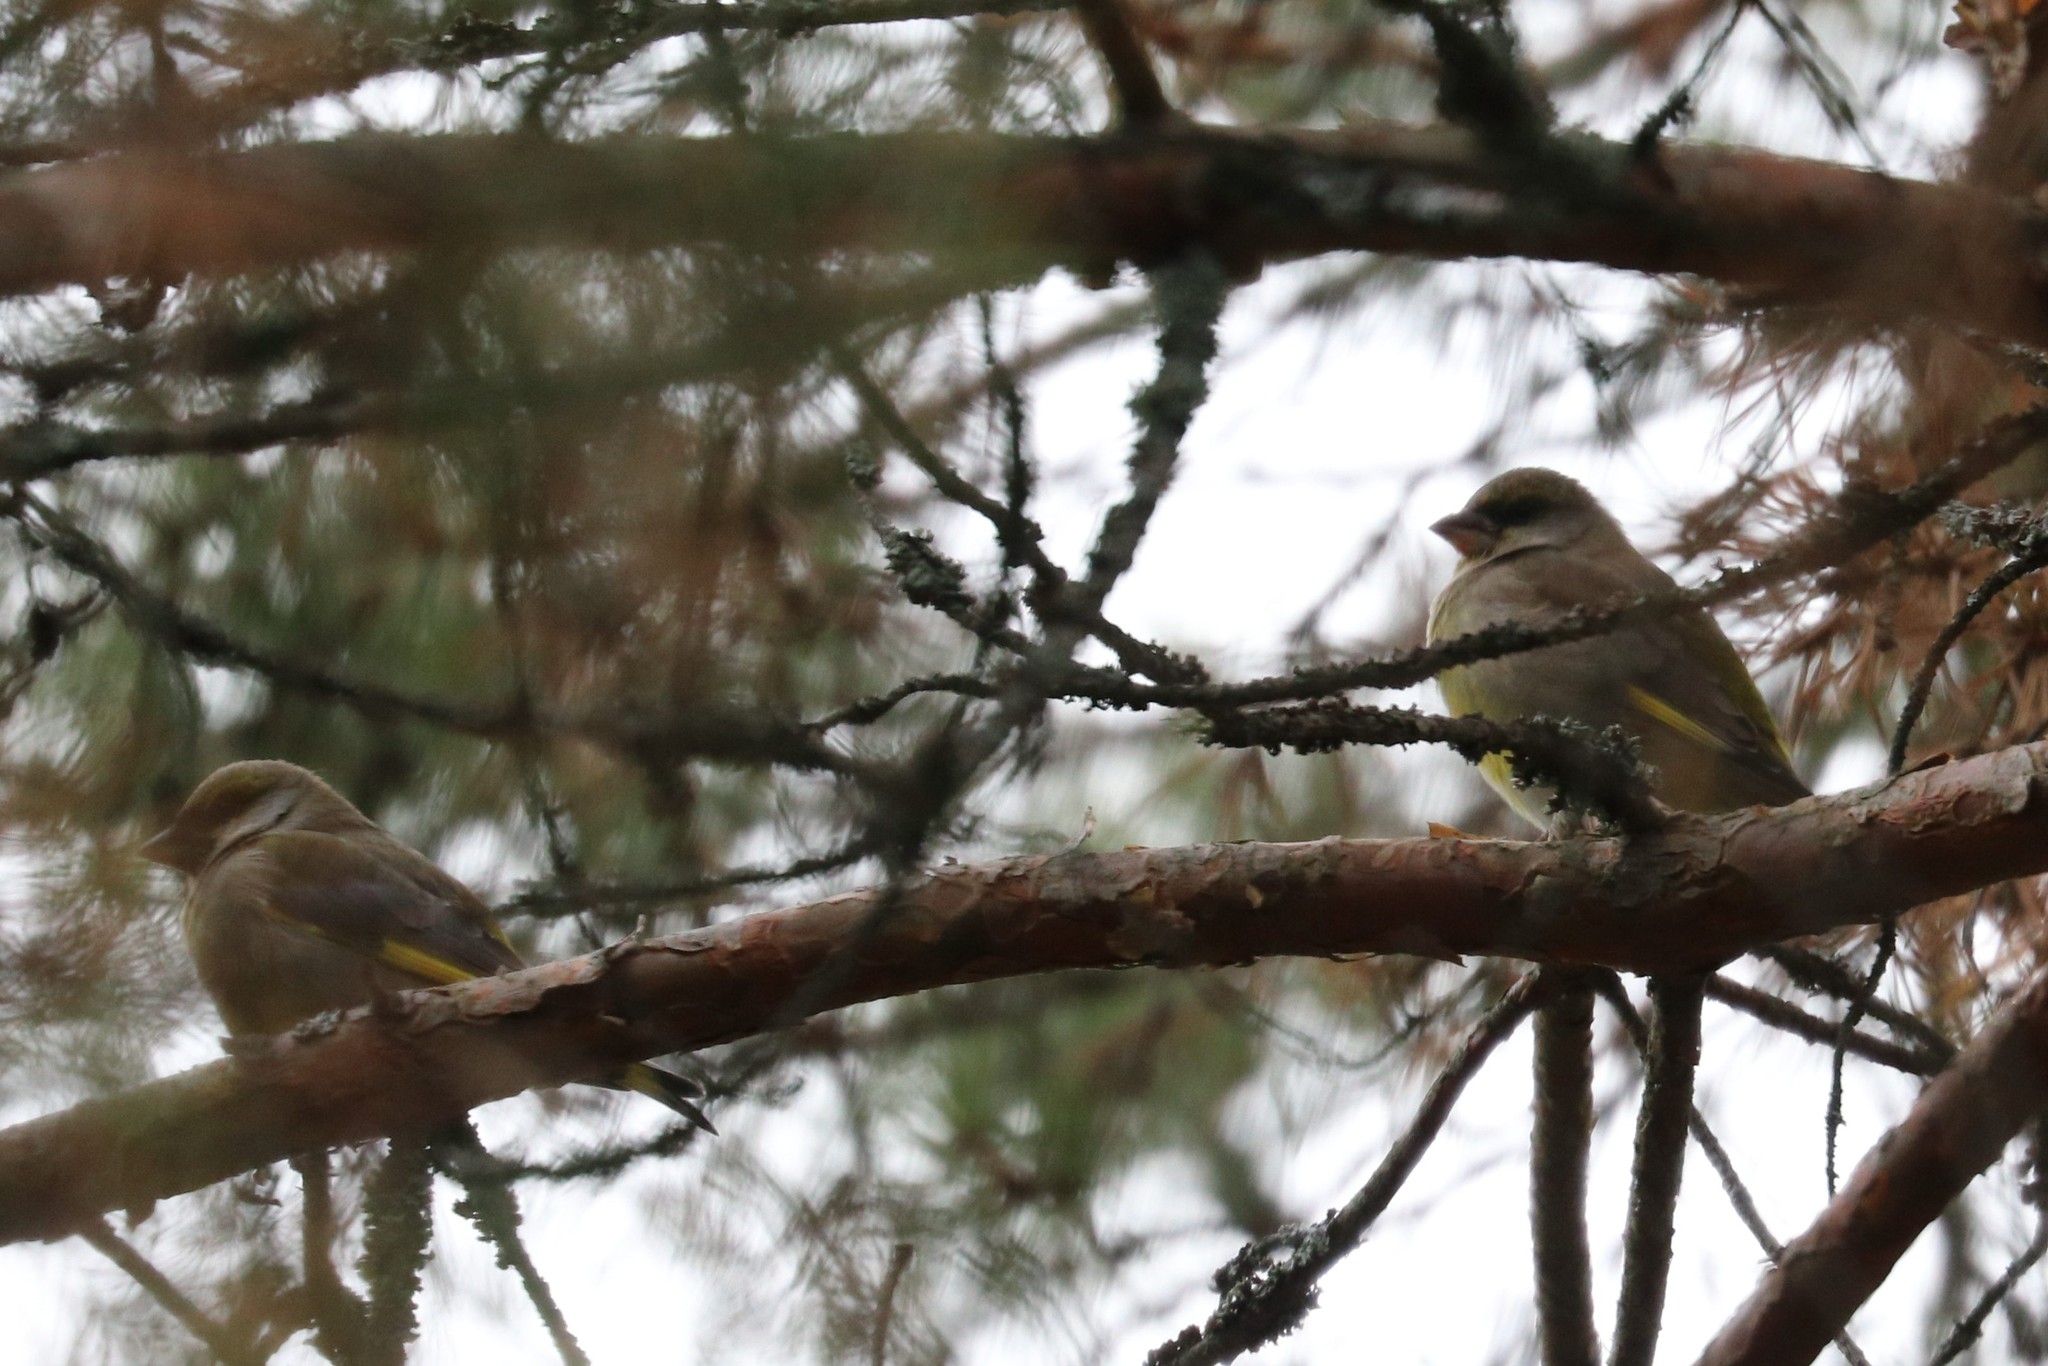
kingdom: Plantae
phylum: Tracheophyta
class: Liliopsida
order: Poales
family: Poaceae
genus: Chloris
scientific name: Chloris chloris
